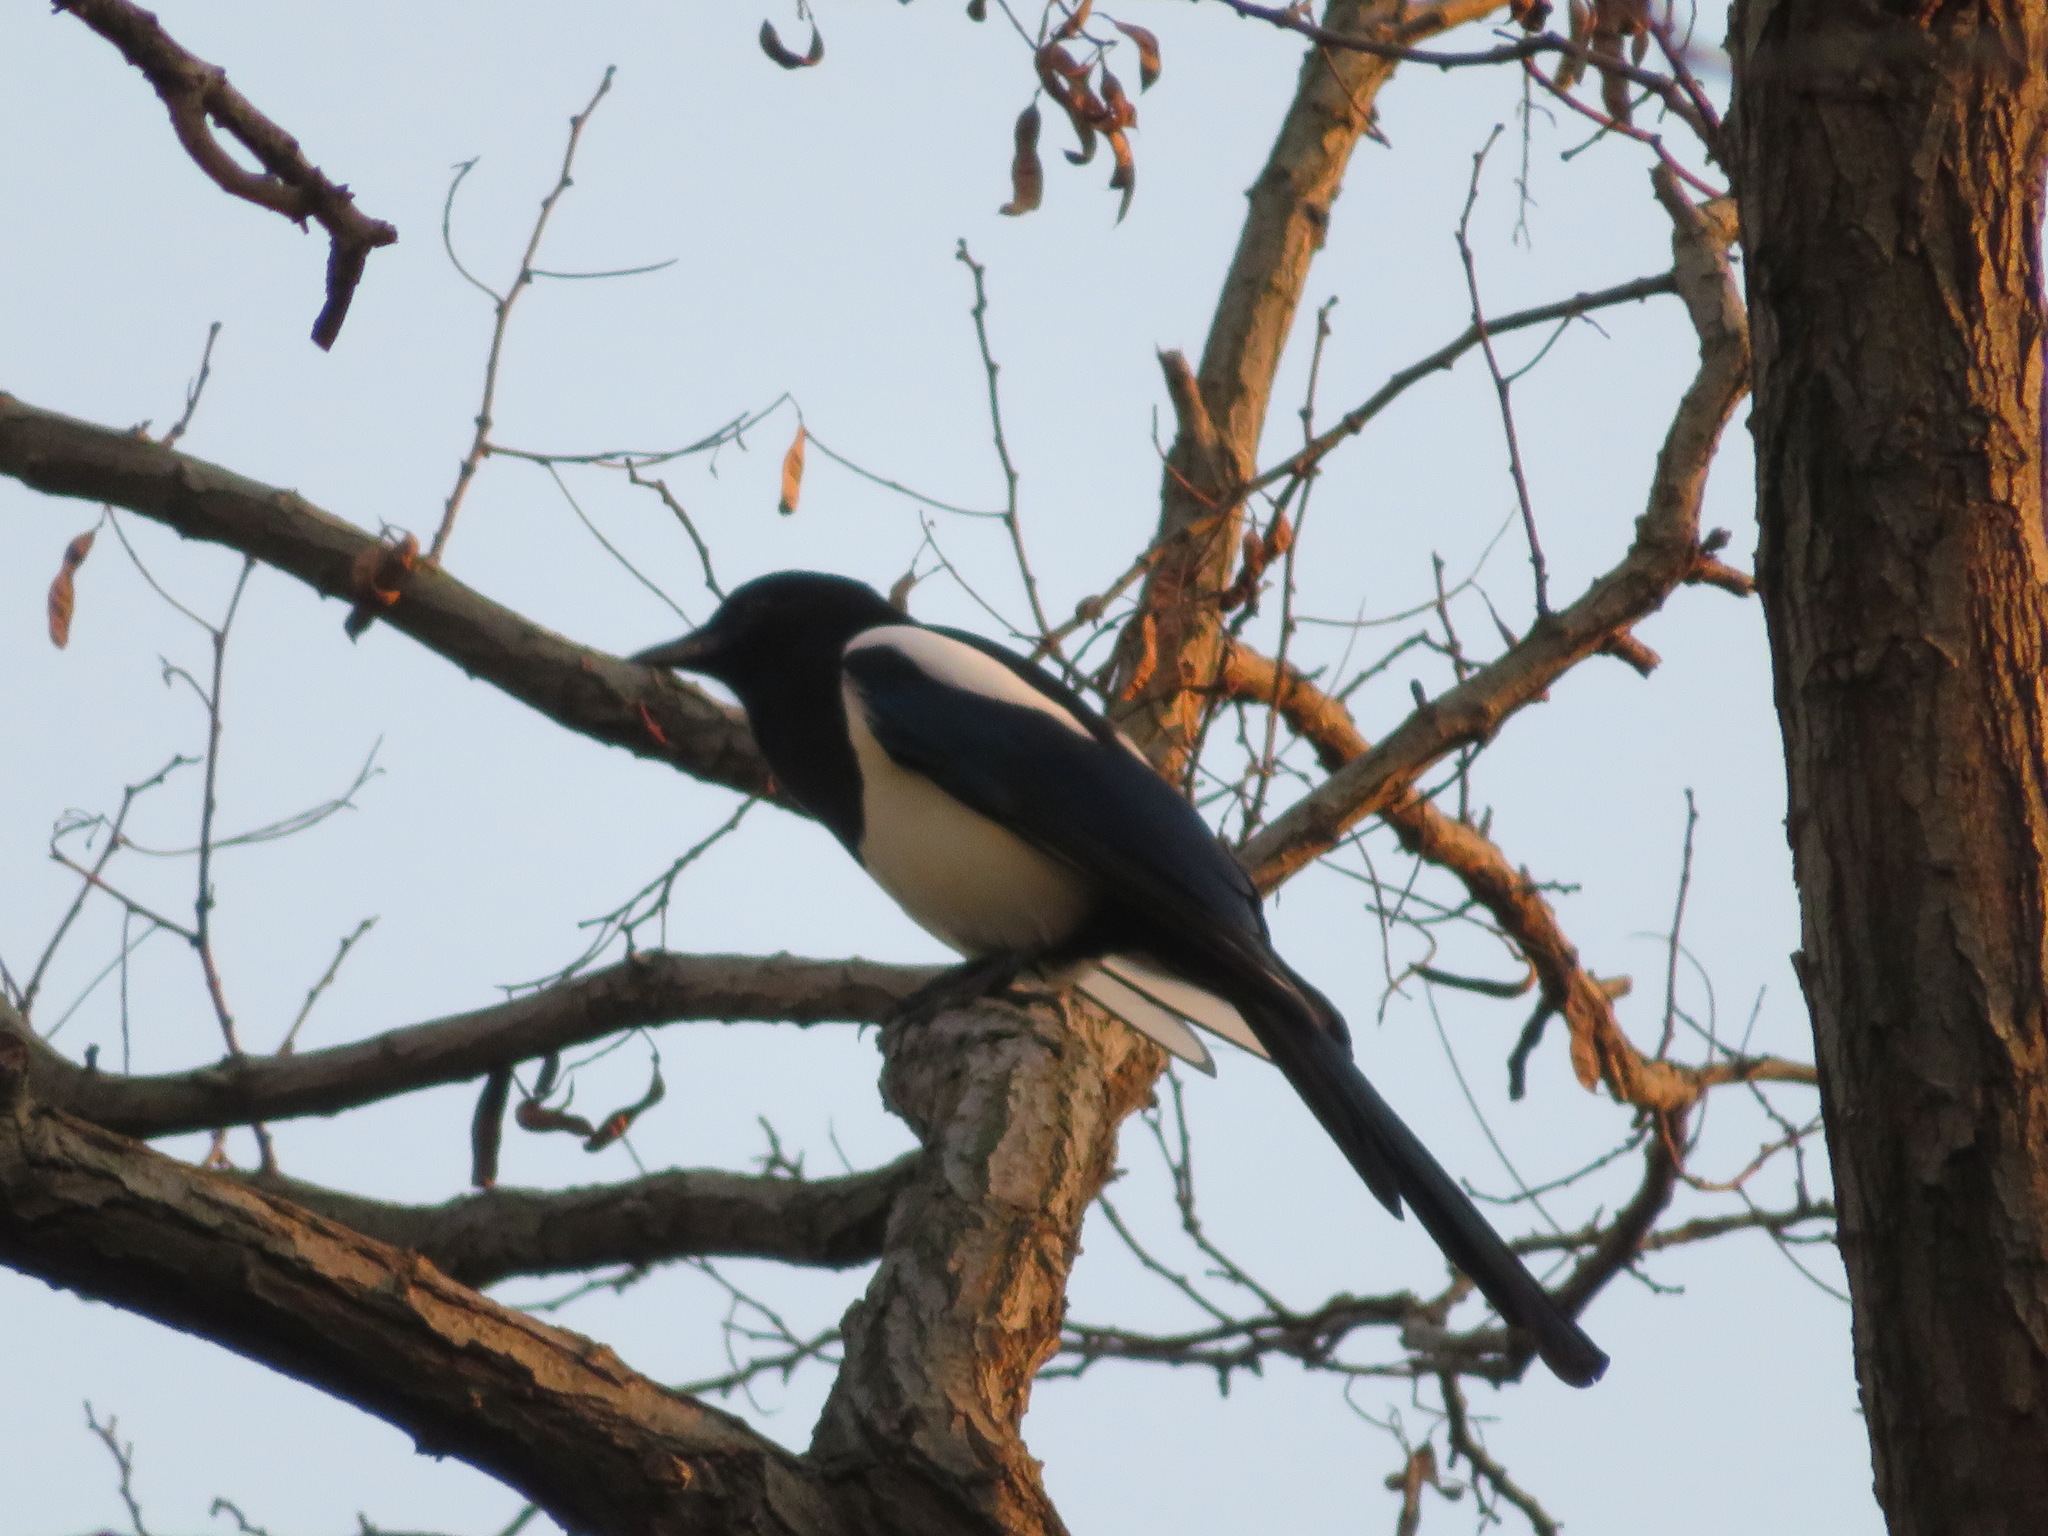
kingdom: Animalia
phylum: Chordata
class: Aves
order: Passeriformes
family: Corvidae
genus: Pica
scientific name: Pica serica
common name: Oriental magpie
